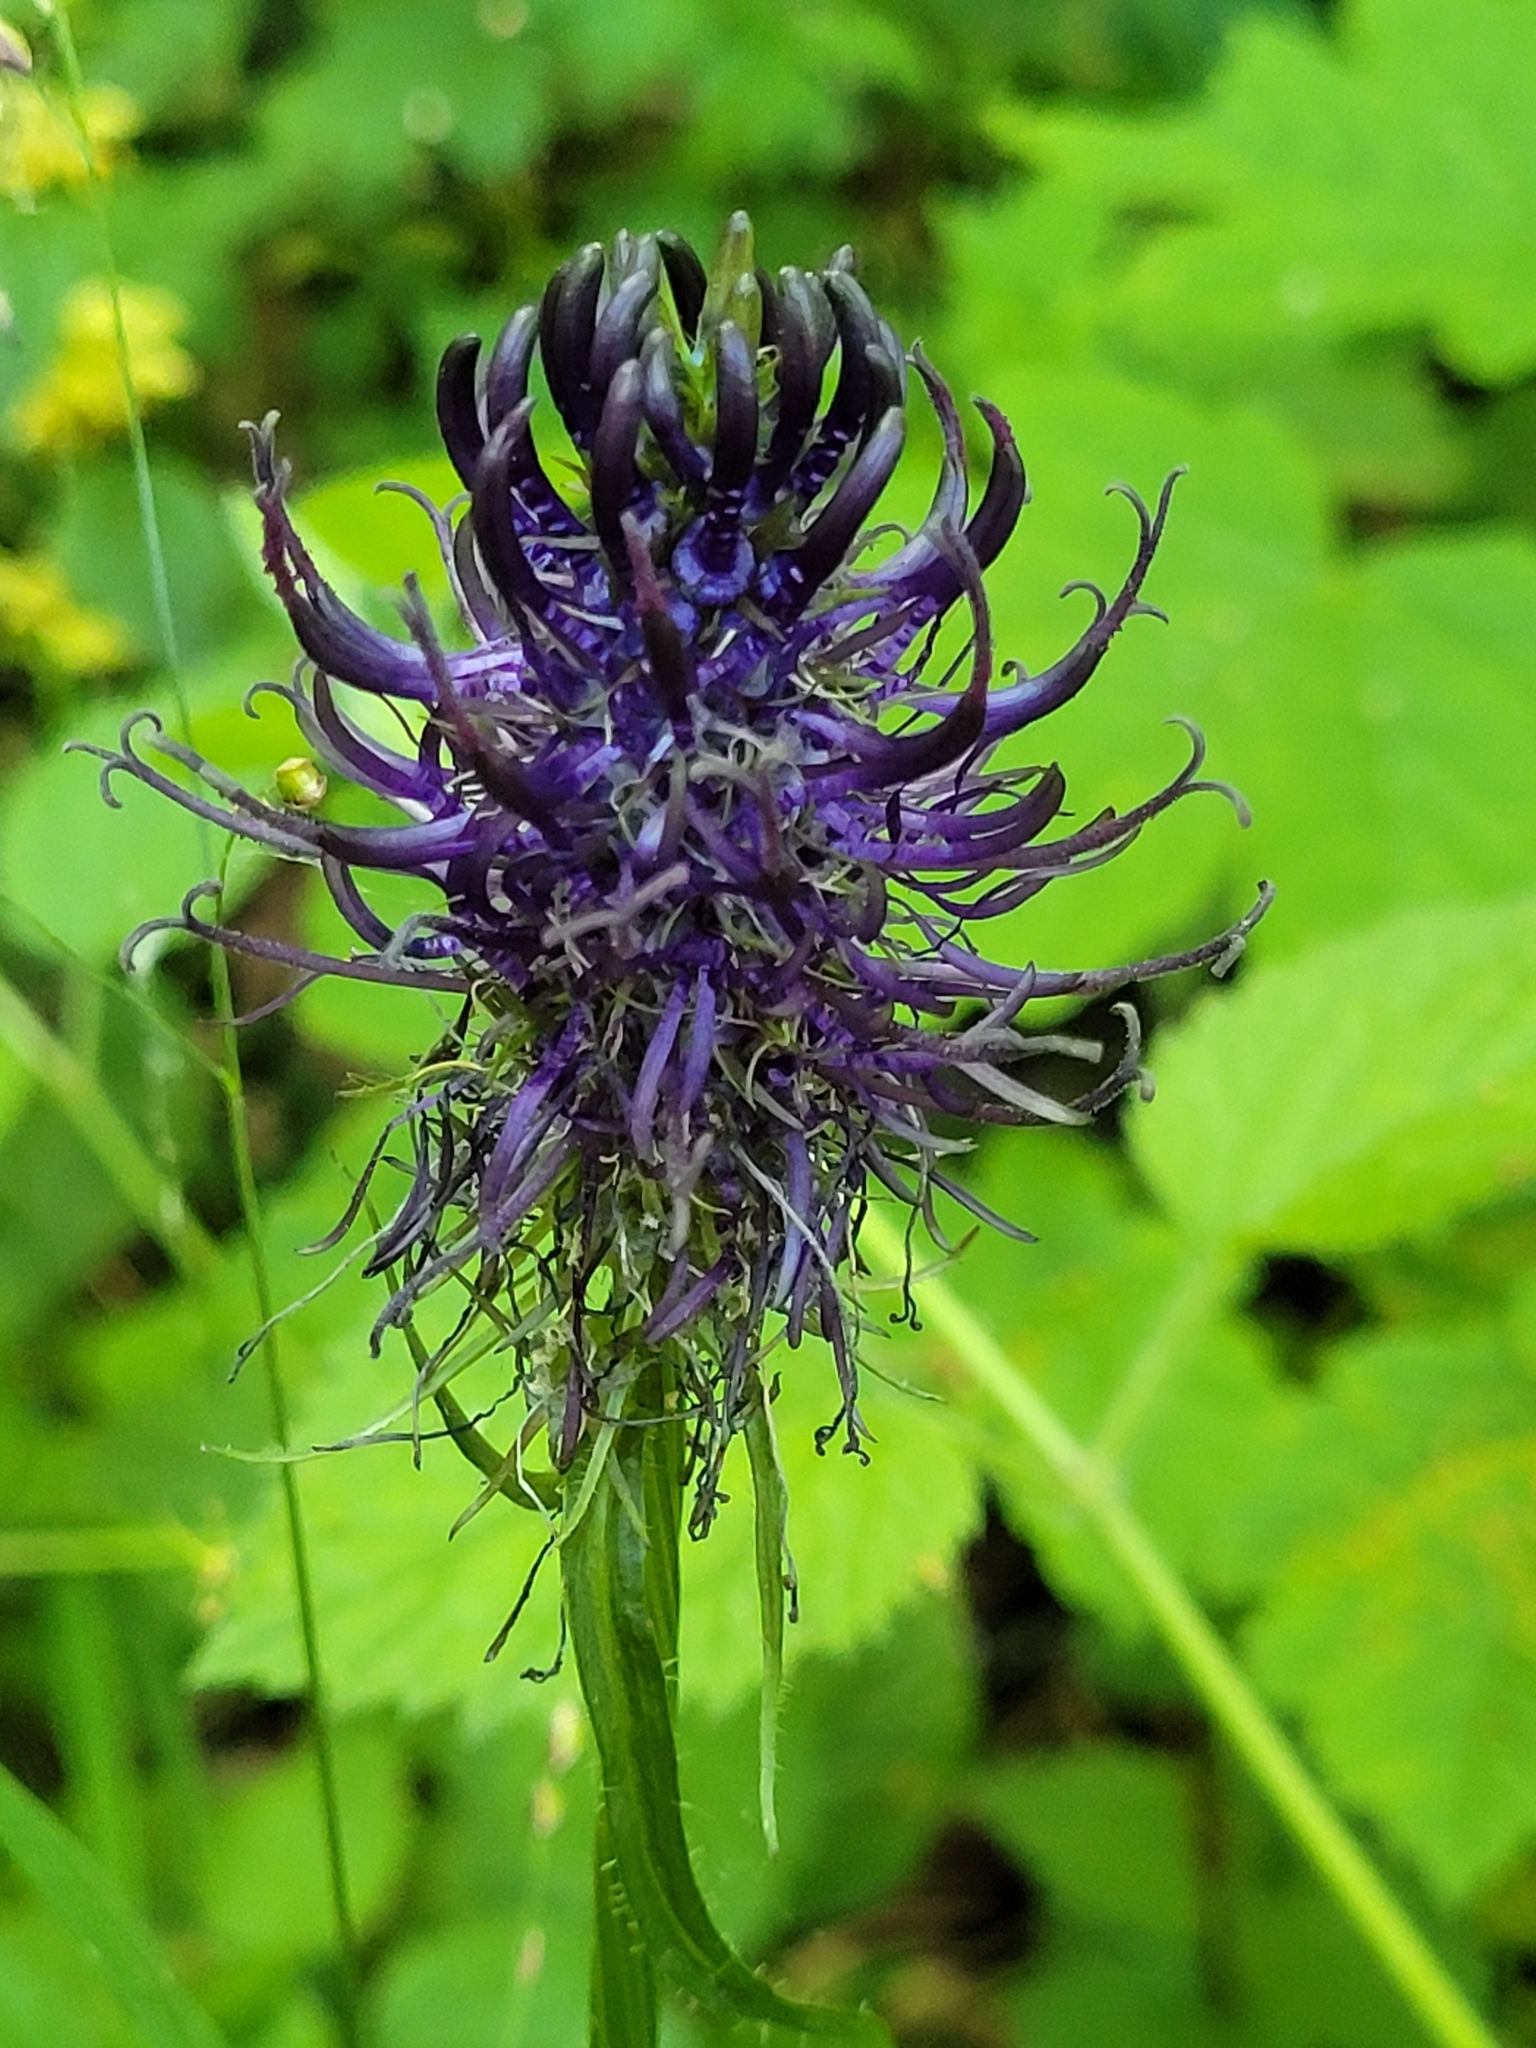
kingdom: Plantae
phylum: Tracheophyta
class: Magnoliopsida
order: Asterales
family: Campanulaceae
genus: Phyteuma
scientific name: Phyteuma nigrum
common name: Black rampion
